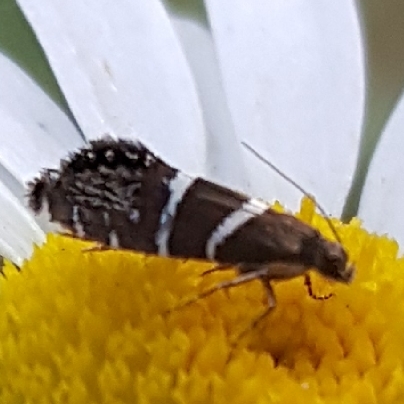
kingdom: Animalia
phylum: Arthropoda
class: Insecta
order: Lepidoptera
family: Glyphipterigidae
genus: Glyphipterix
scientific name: Glyphipterix bifasciata
